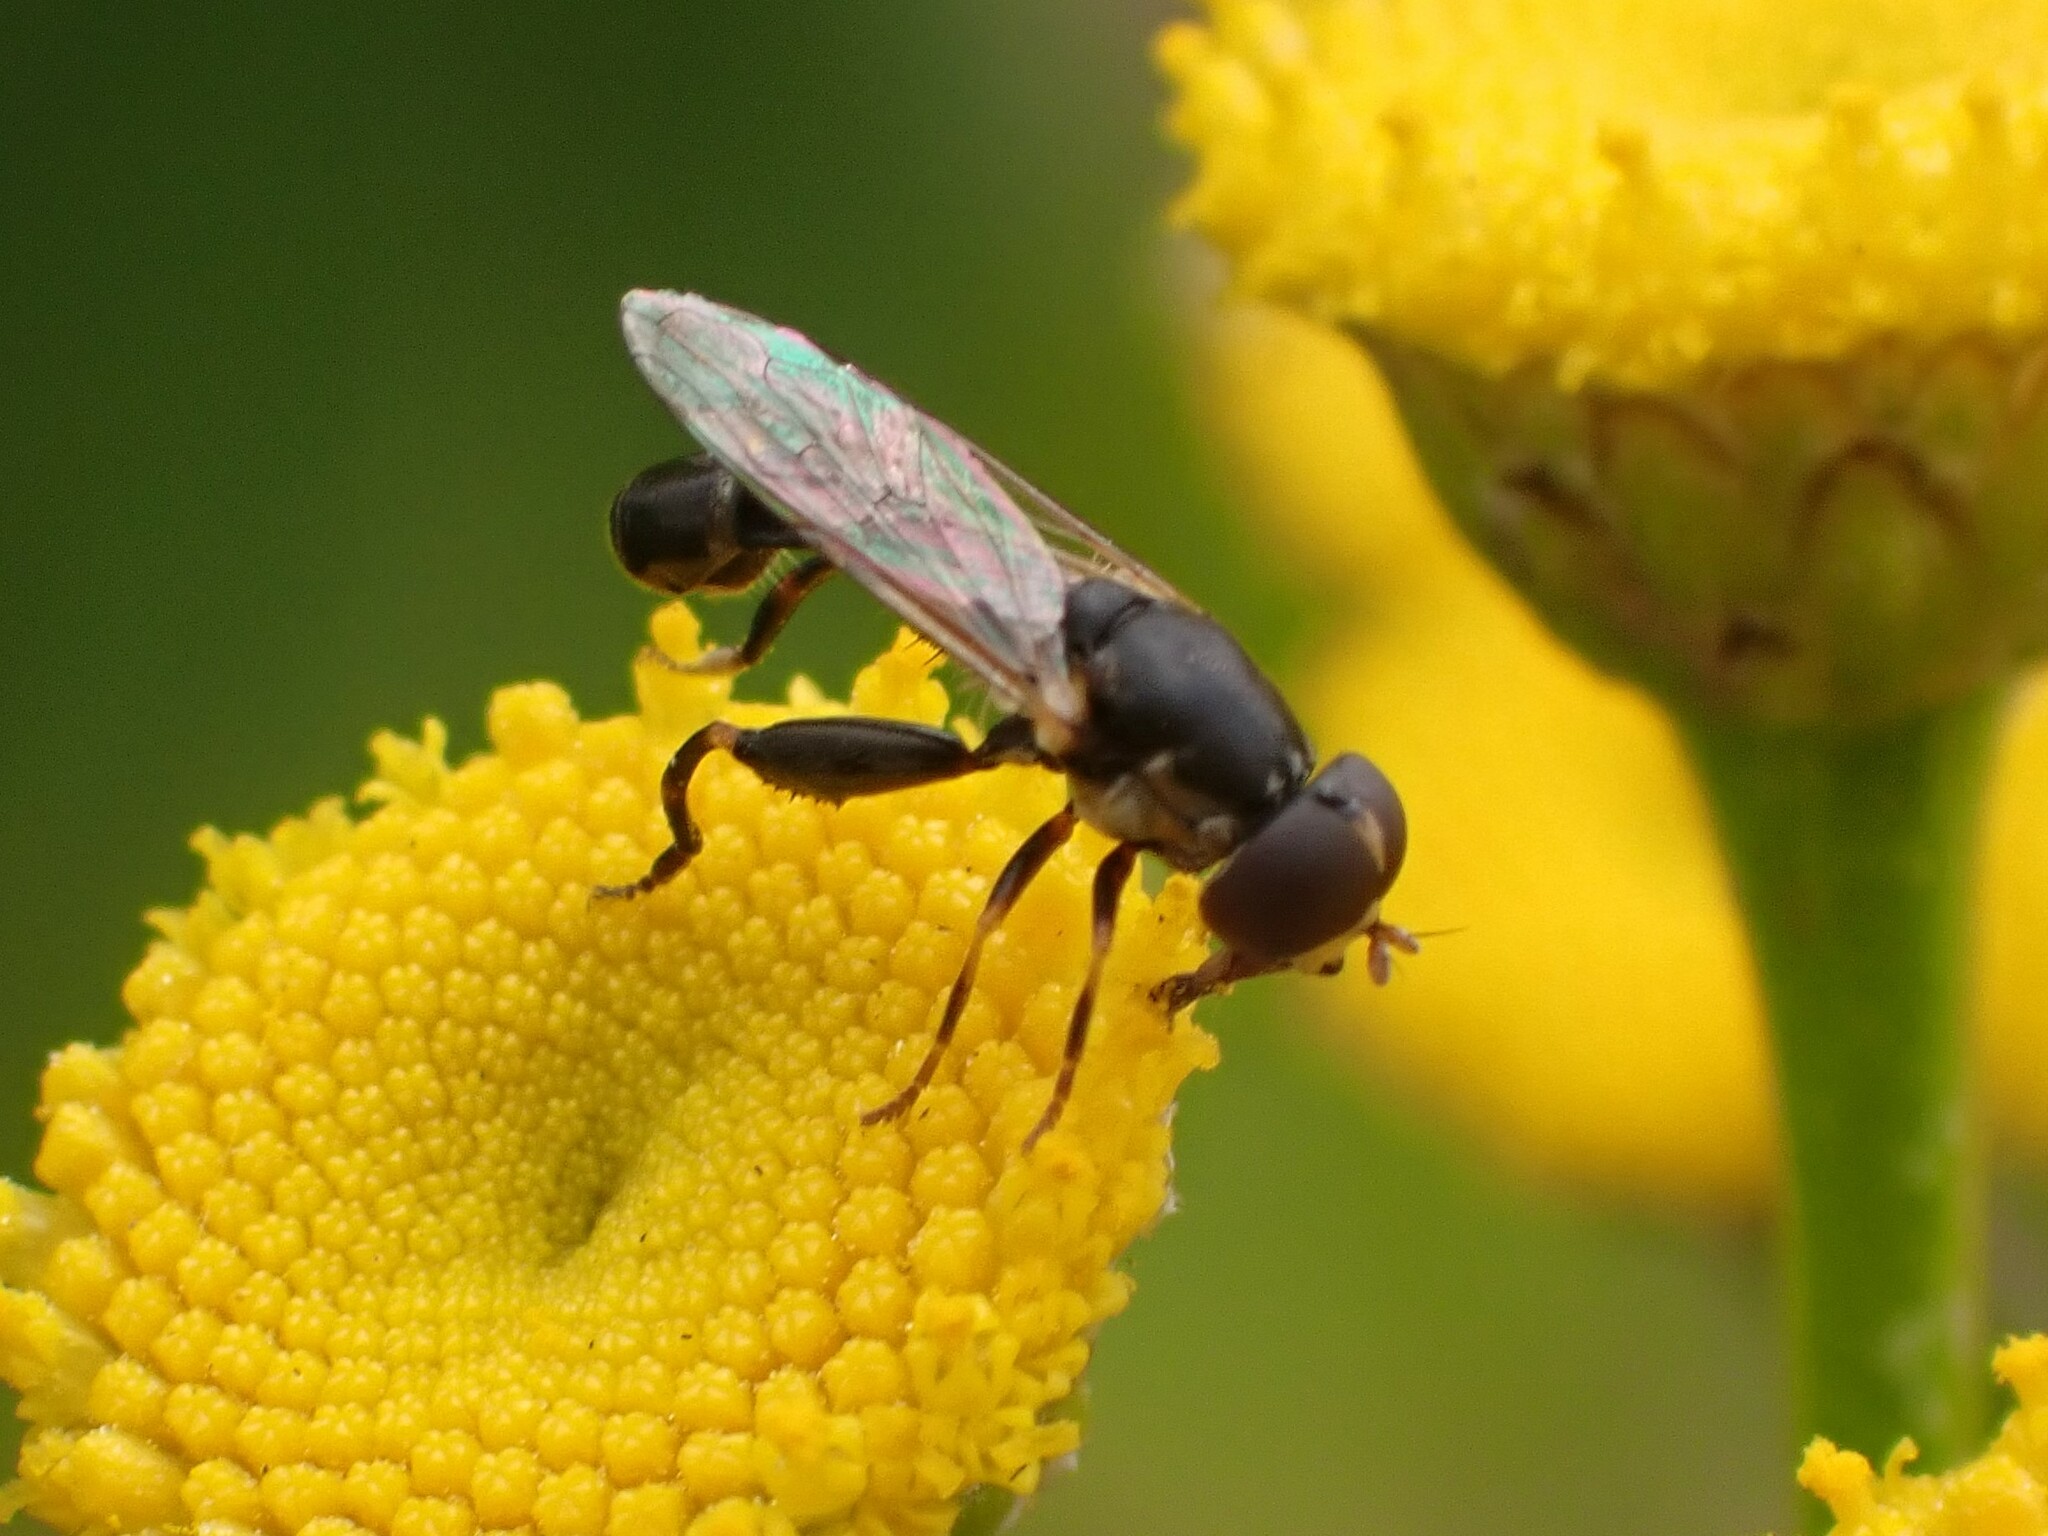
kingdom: Animalia
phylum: Arthropoda
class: Insecta
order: Diptera
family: Syrphidae
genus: Syritta
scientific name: Syritta pipiens
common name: Hover fly
